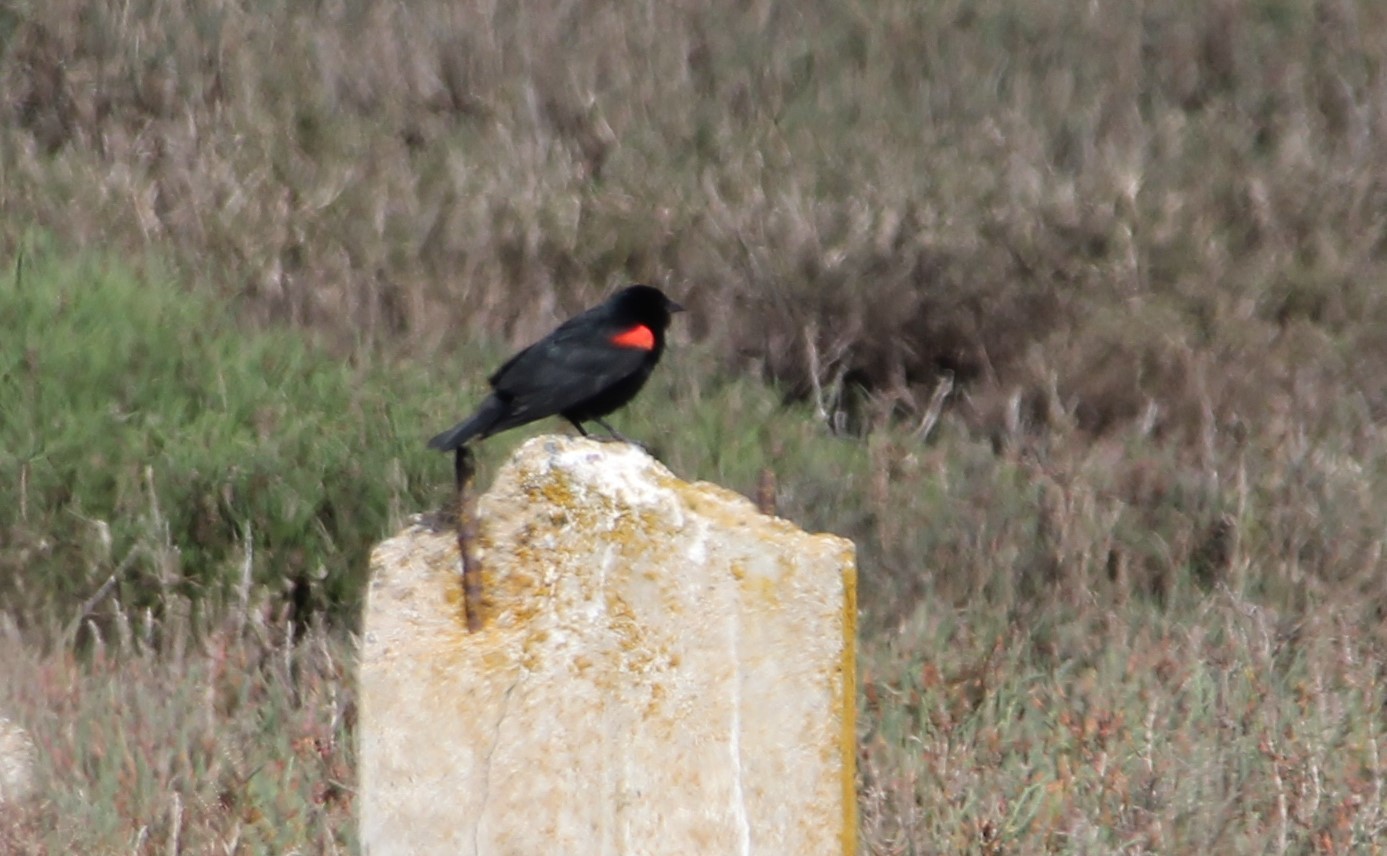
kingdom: Animalia
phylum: Chordata
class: Aves
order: Passeriformes
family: Icteridae
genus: Agelaius
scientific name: Agelaius phoeniceus
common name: Red-winged blackbird
